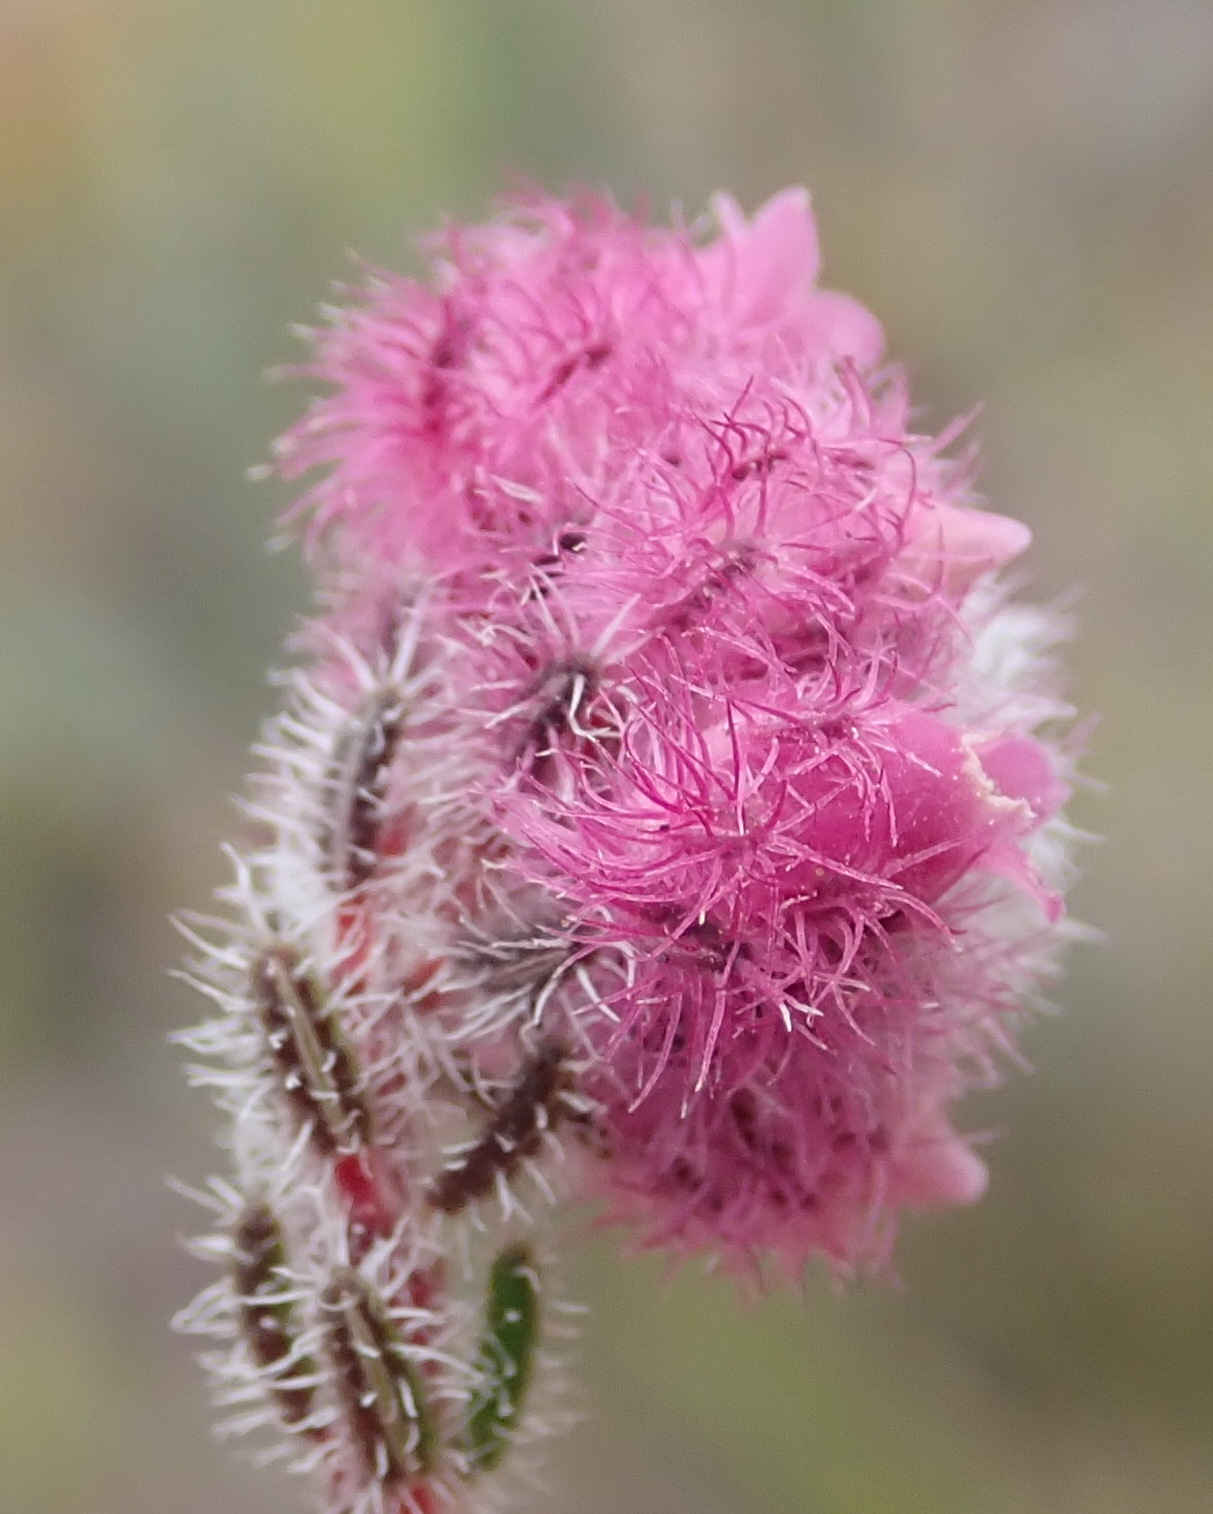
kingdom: Plantae
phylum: Tracheophyta
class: Magnoliopsida
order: Ericales
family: Ericaceae
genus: Erica
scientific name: Erica solandra
